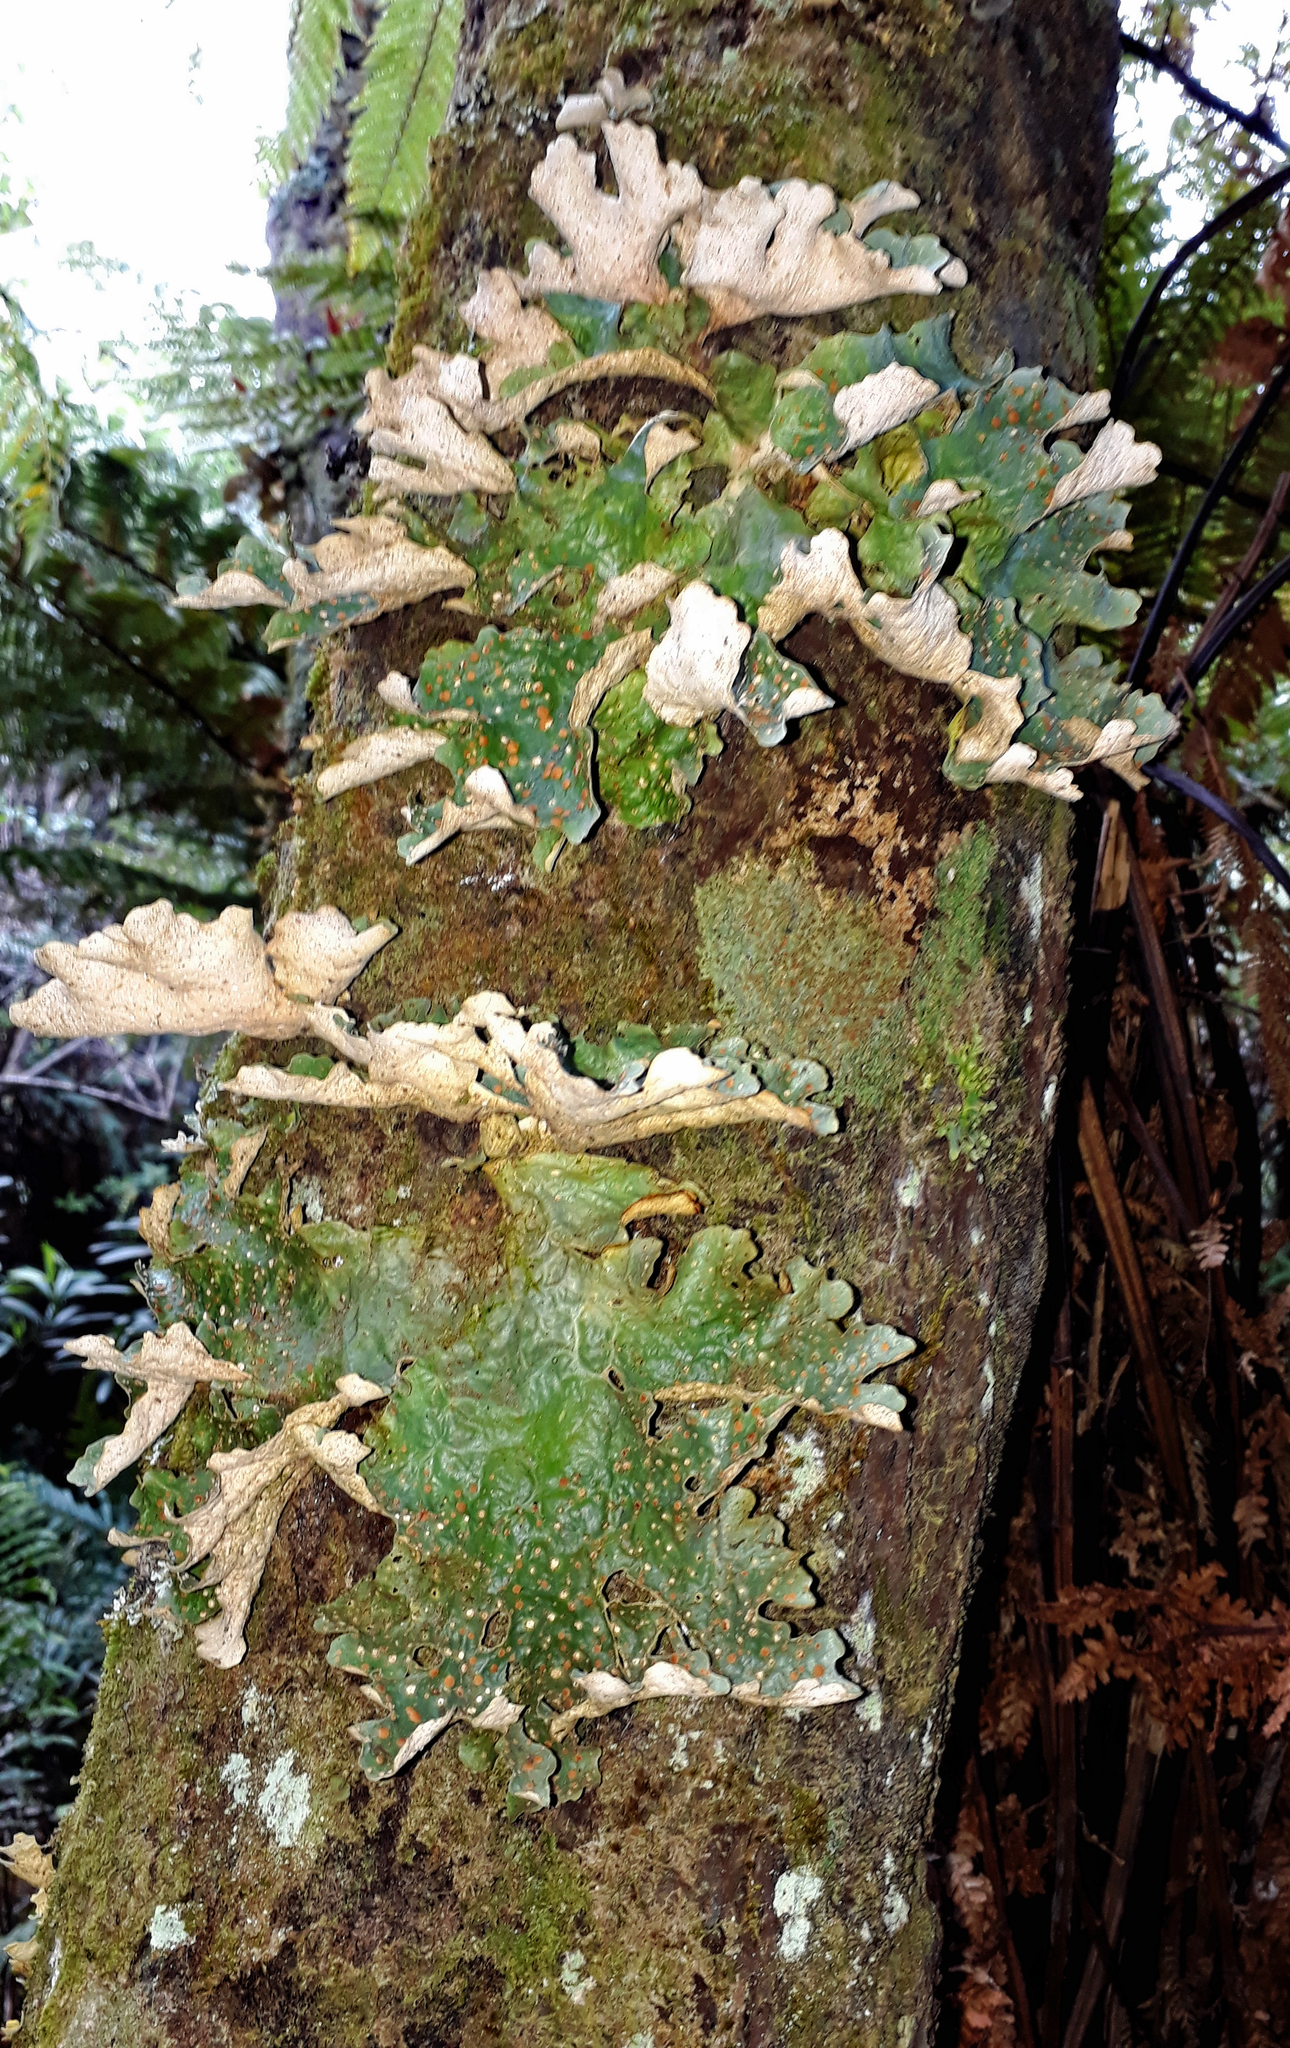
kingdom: Fungi
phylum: Ascomycota
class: Lecanoromycetes
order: Peltigerales
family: Lobariaceae
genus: Sticta
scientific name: Sticta latifrons
